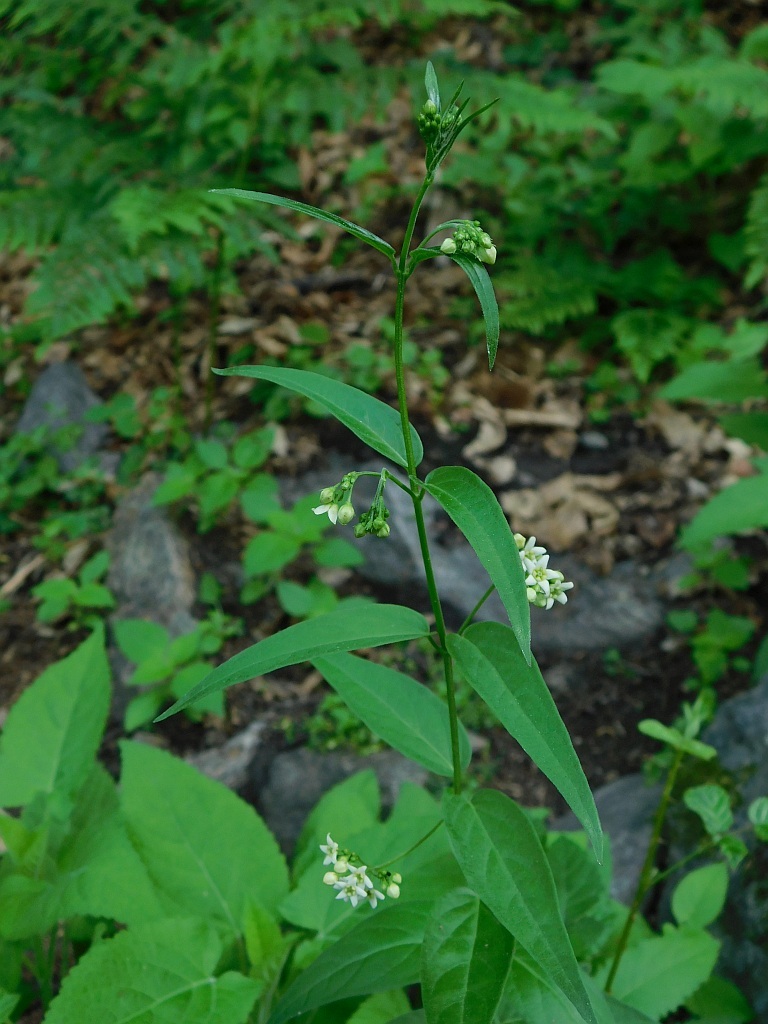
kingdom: Plantae
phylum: Tracheophyta
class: Magnoliopsida
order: Gentianales
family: Apocynaceae
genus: Vincetoxicum
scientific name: Vincetoxicum hirundinaria
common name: White swallowwort
